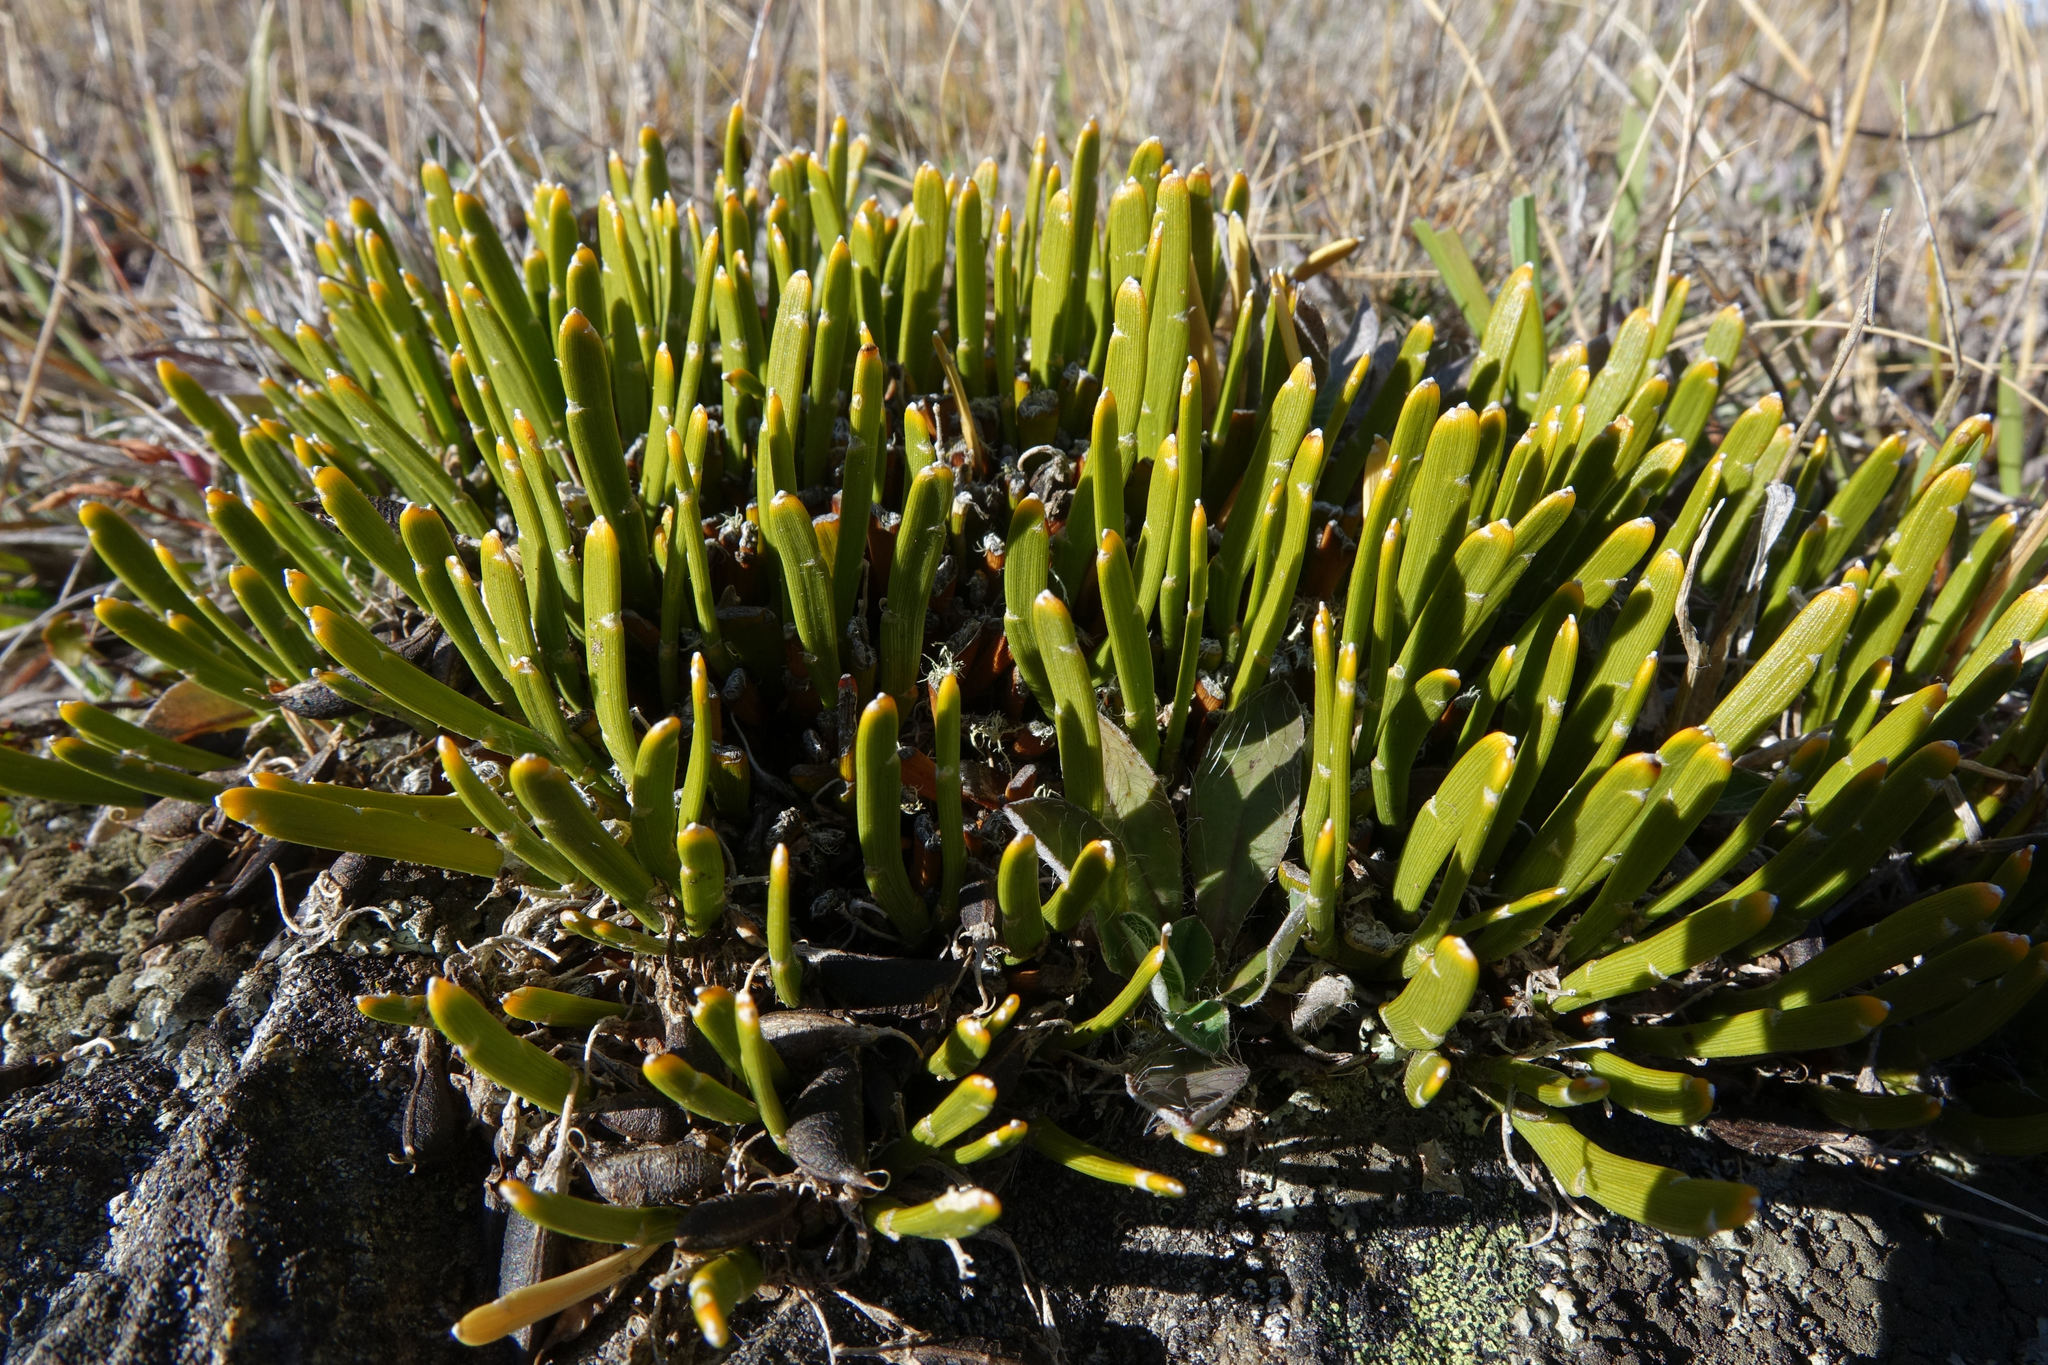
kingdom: Plantae
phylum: Tracheophyta
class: Magnoliopsida
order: Fabales
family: Fabaceae
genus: Carmichaelia
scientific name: Carmichaelia vexillata
